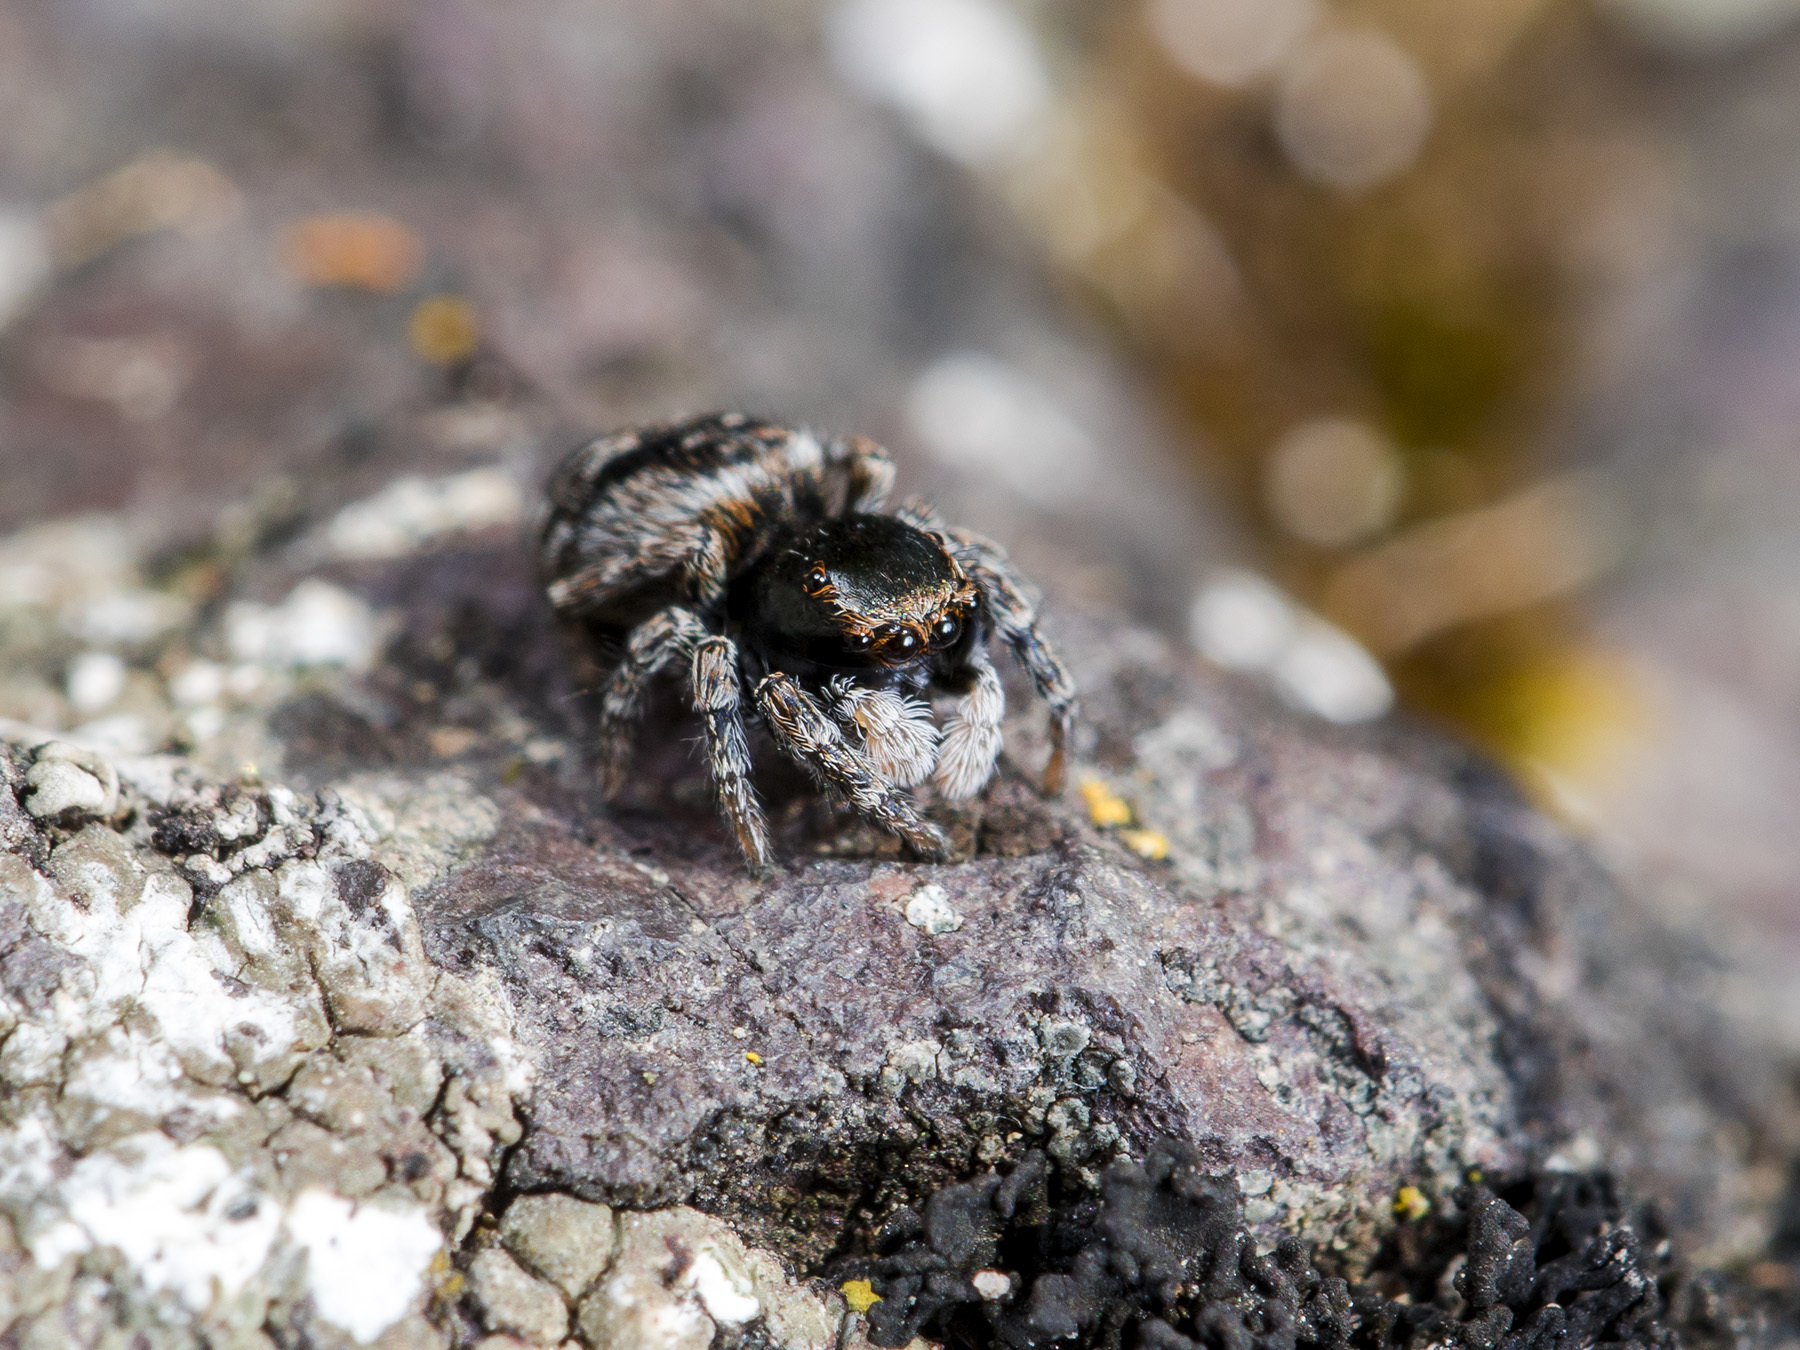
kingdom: Animalia
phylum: Arthropoda
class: Arachnida
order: Araneae
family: Salticidae
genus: Attulus
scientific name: Attulus mirandus
